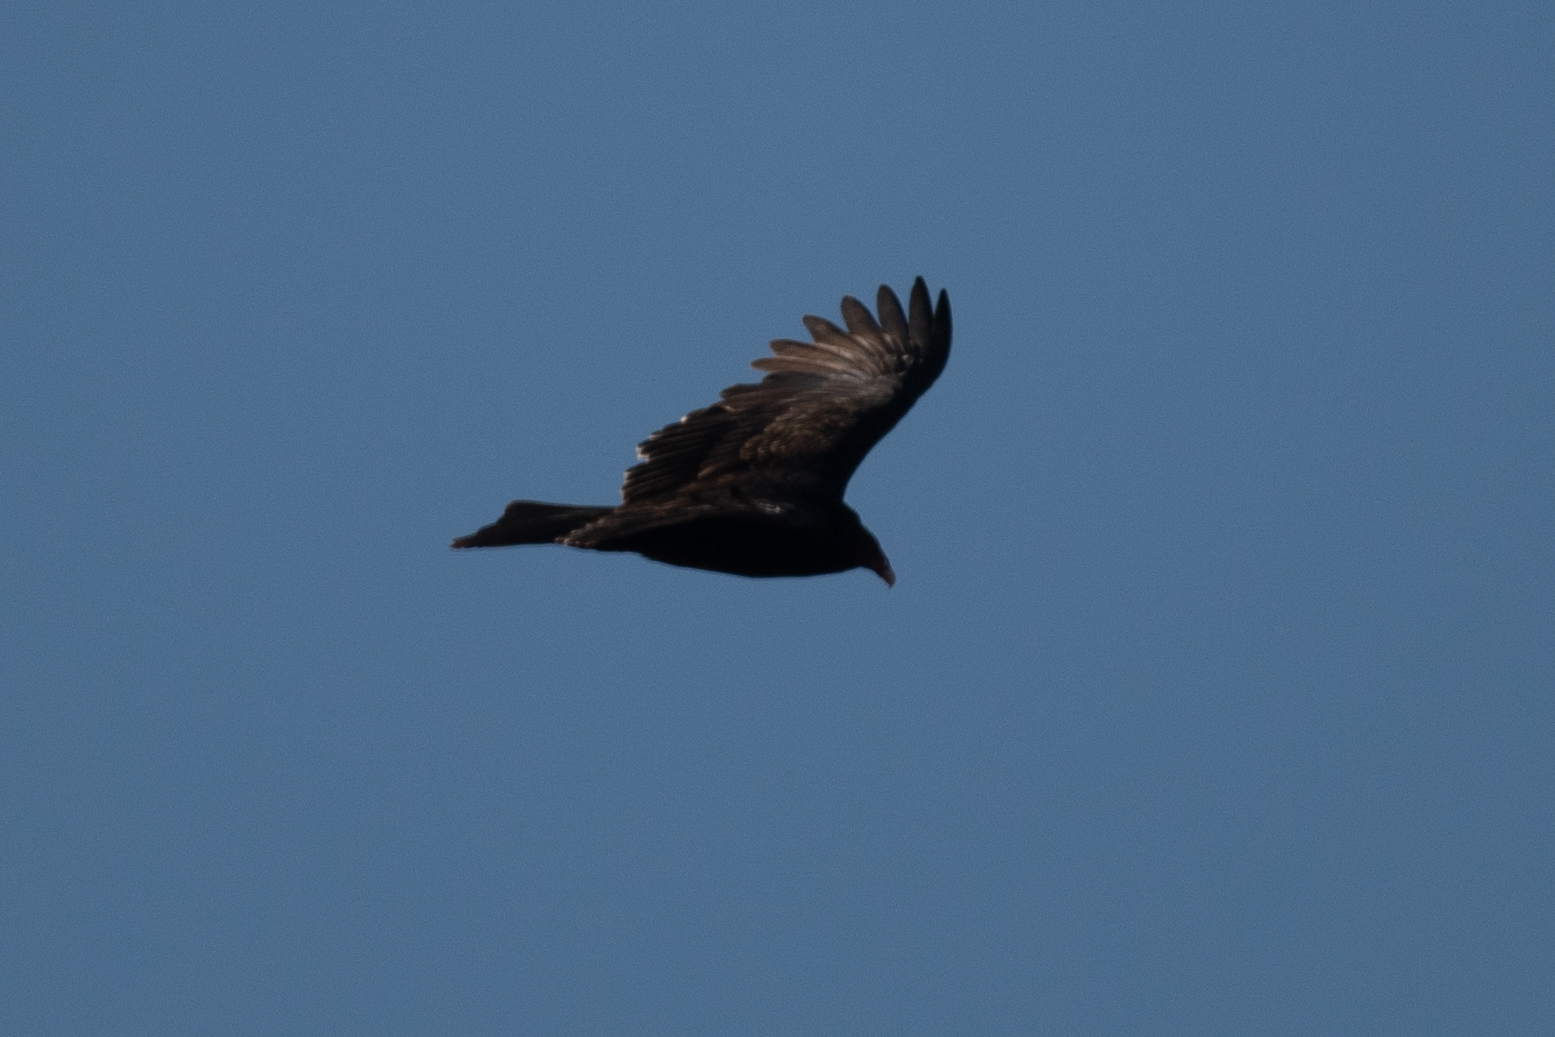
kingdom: Animalia
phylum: Chordata
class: Aves
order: Accipitriformes
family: Cathartidae
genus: Cathartes
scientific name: Cathartes aura
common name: Turkey vulture
